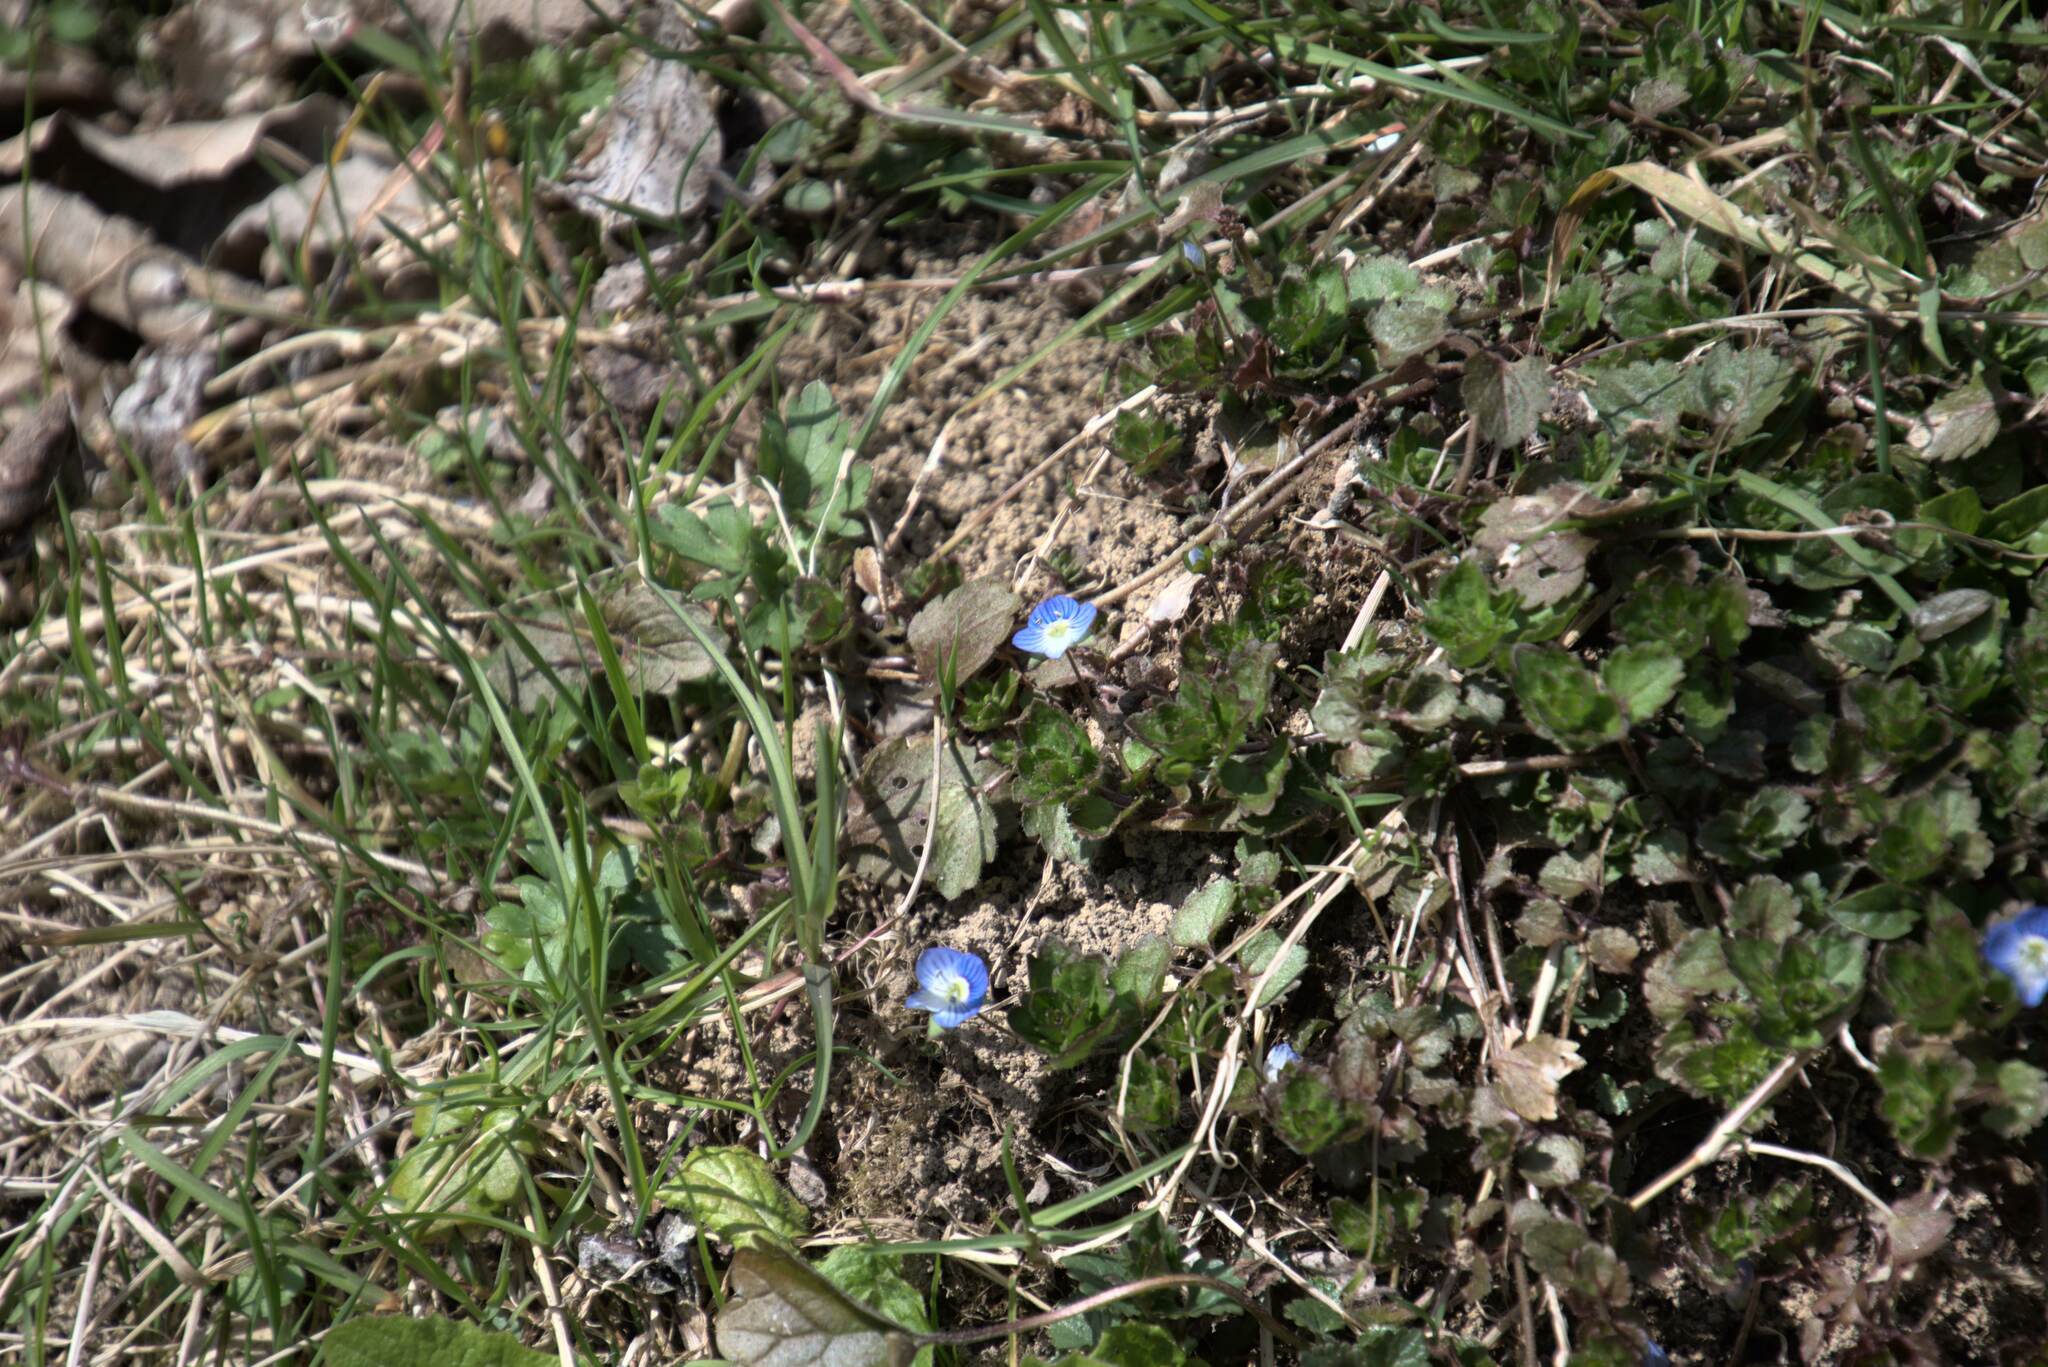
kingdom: Plantae
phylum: Tracheophyta
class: Magnoliopsida
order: Lamiales
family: Plantaginaceae
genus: Veronica
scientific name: Veronica persica
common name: Common field-speedwell
